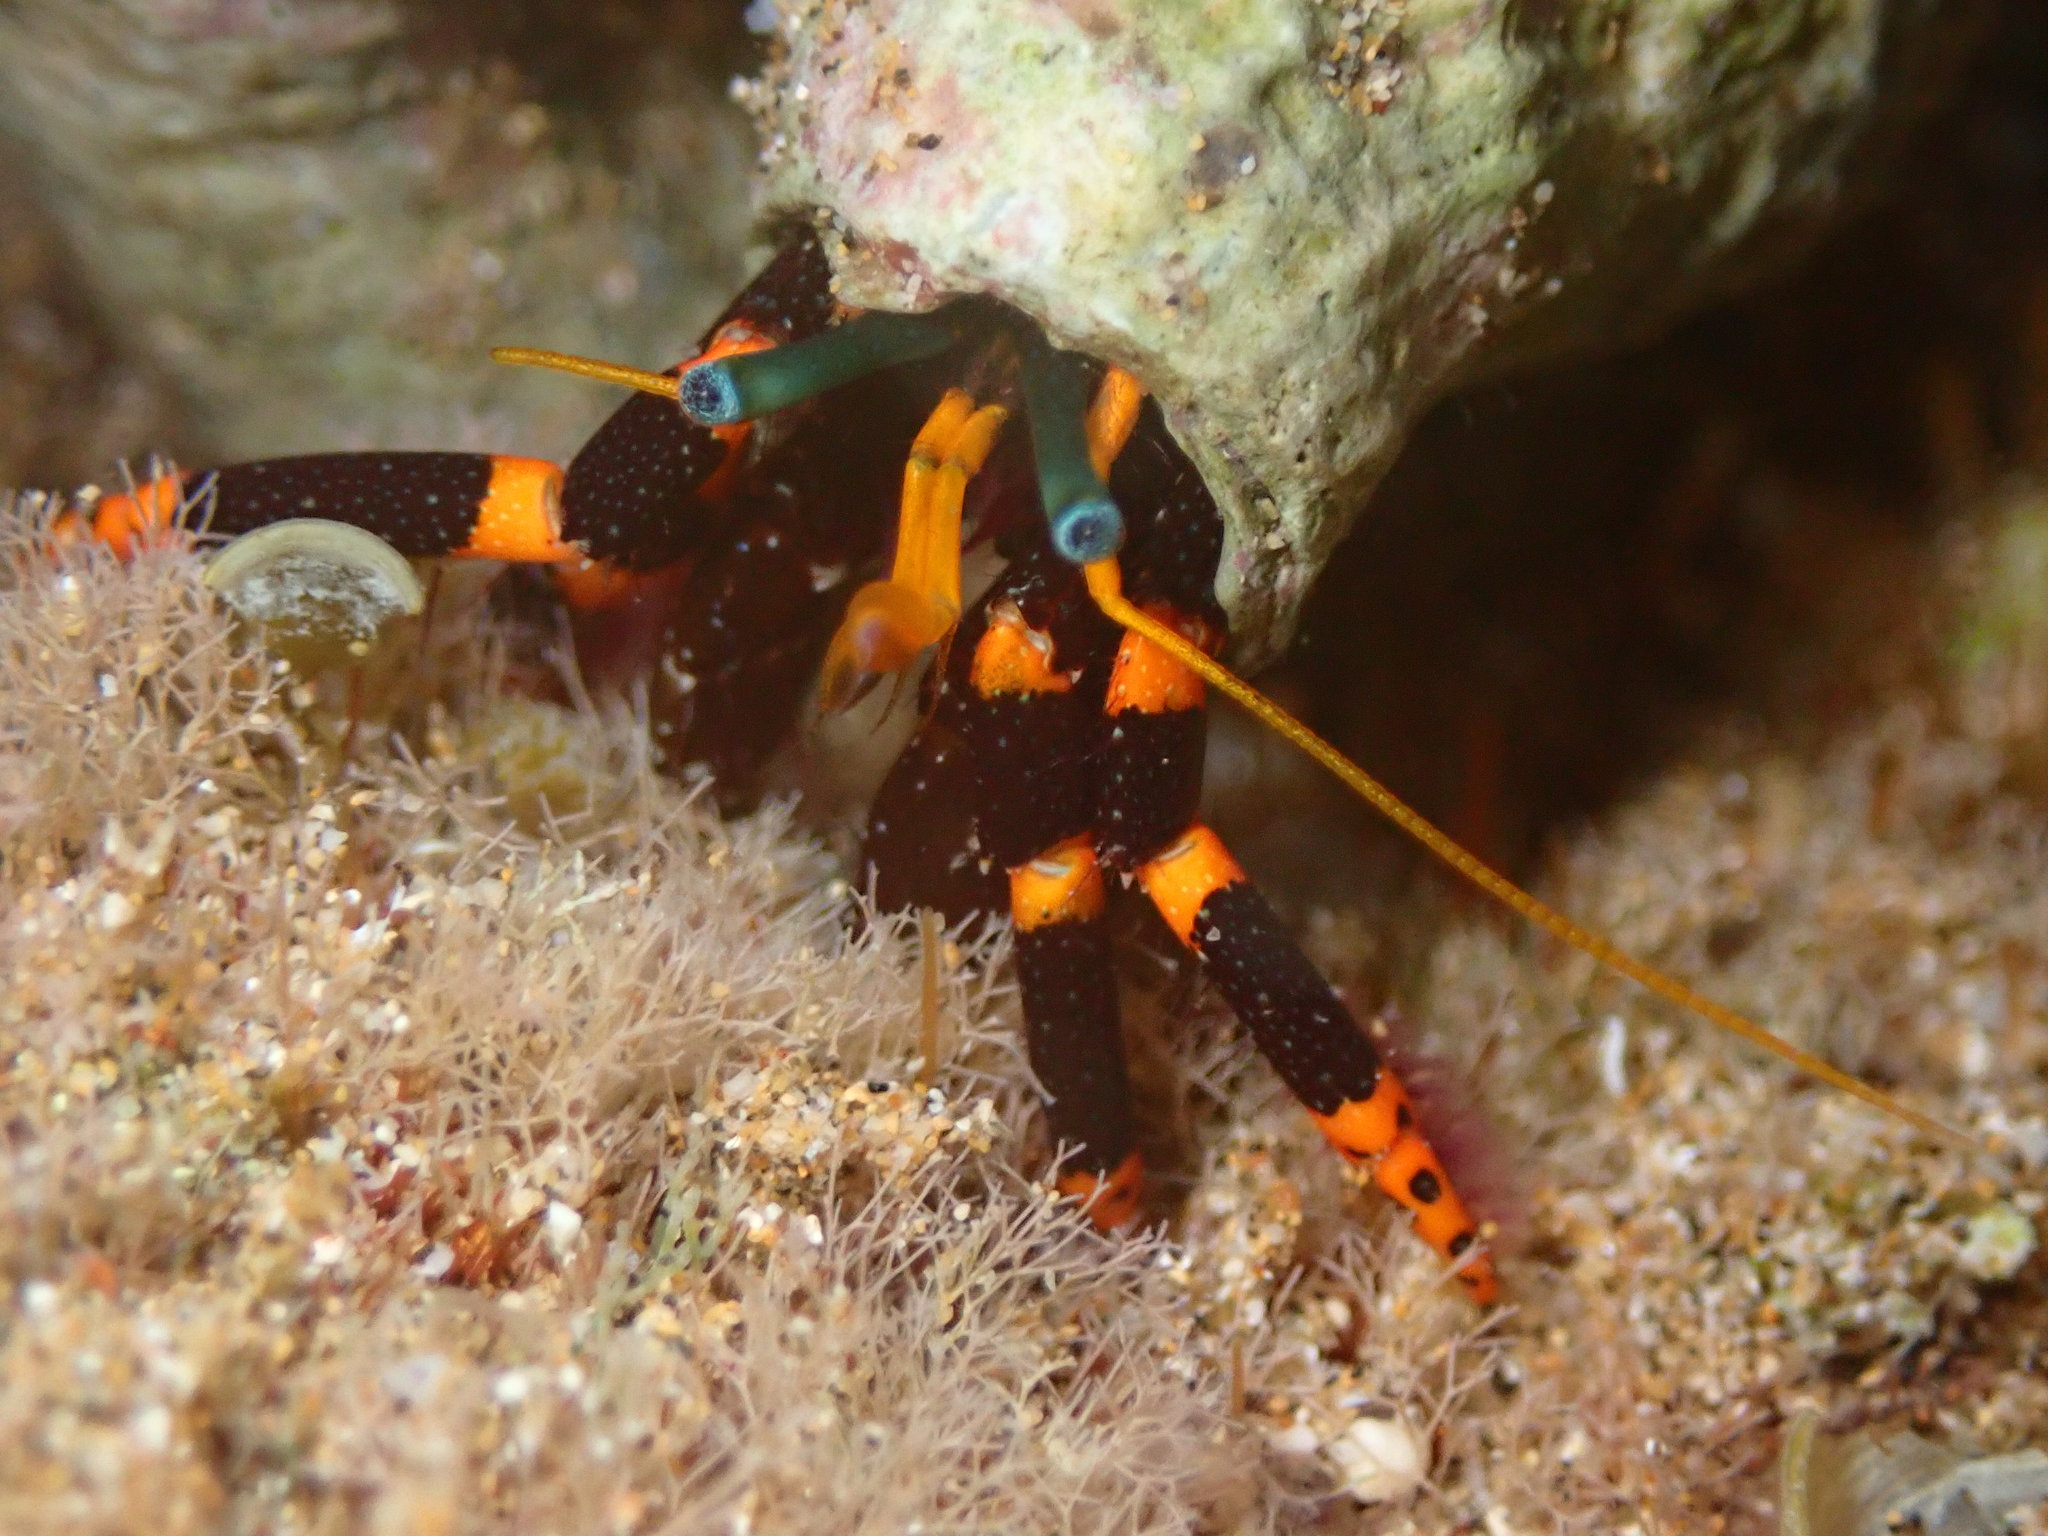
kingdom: Animalia
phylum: Arthropoda
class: Malacostraca
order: Decapoda
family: Diogenidae
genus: Calcinus
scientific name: Calcinus pictus
